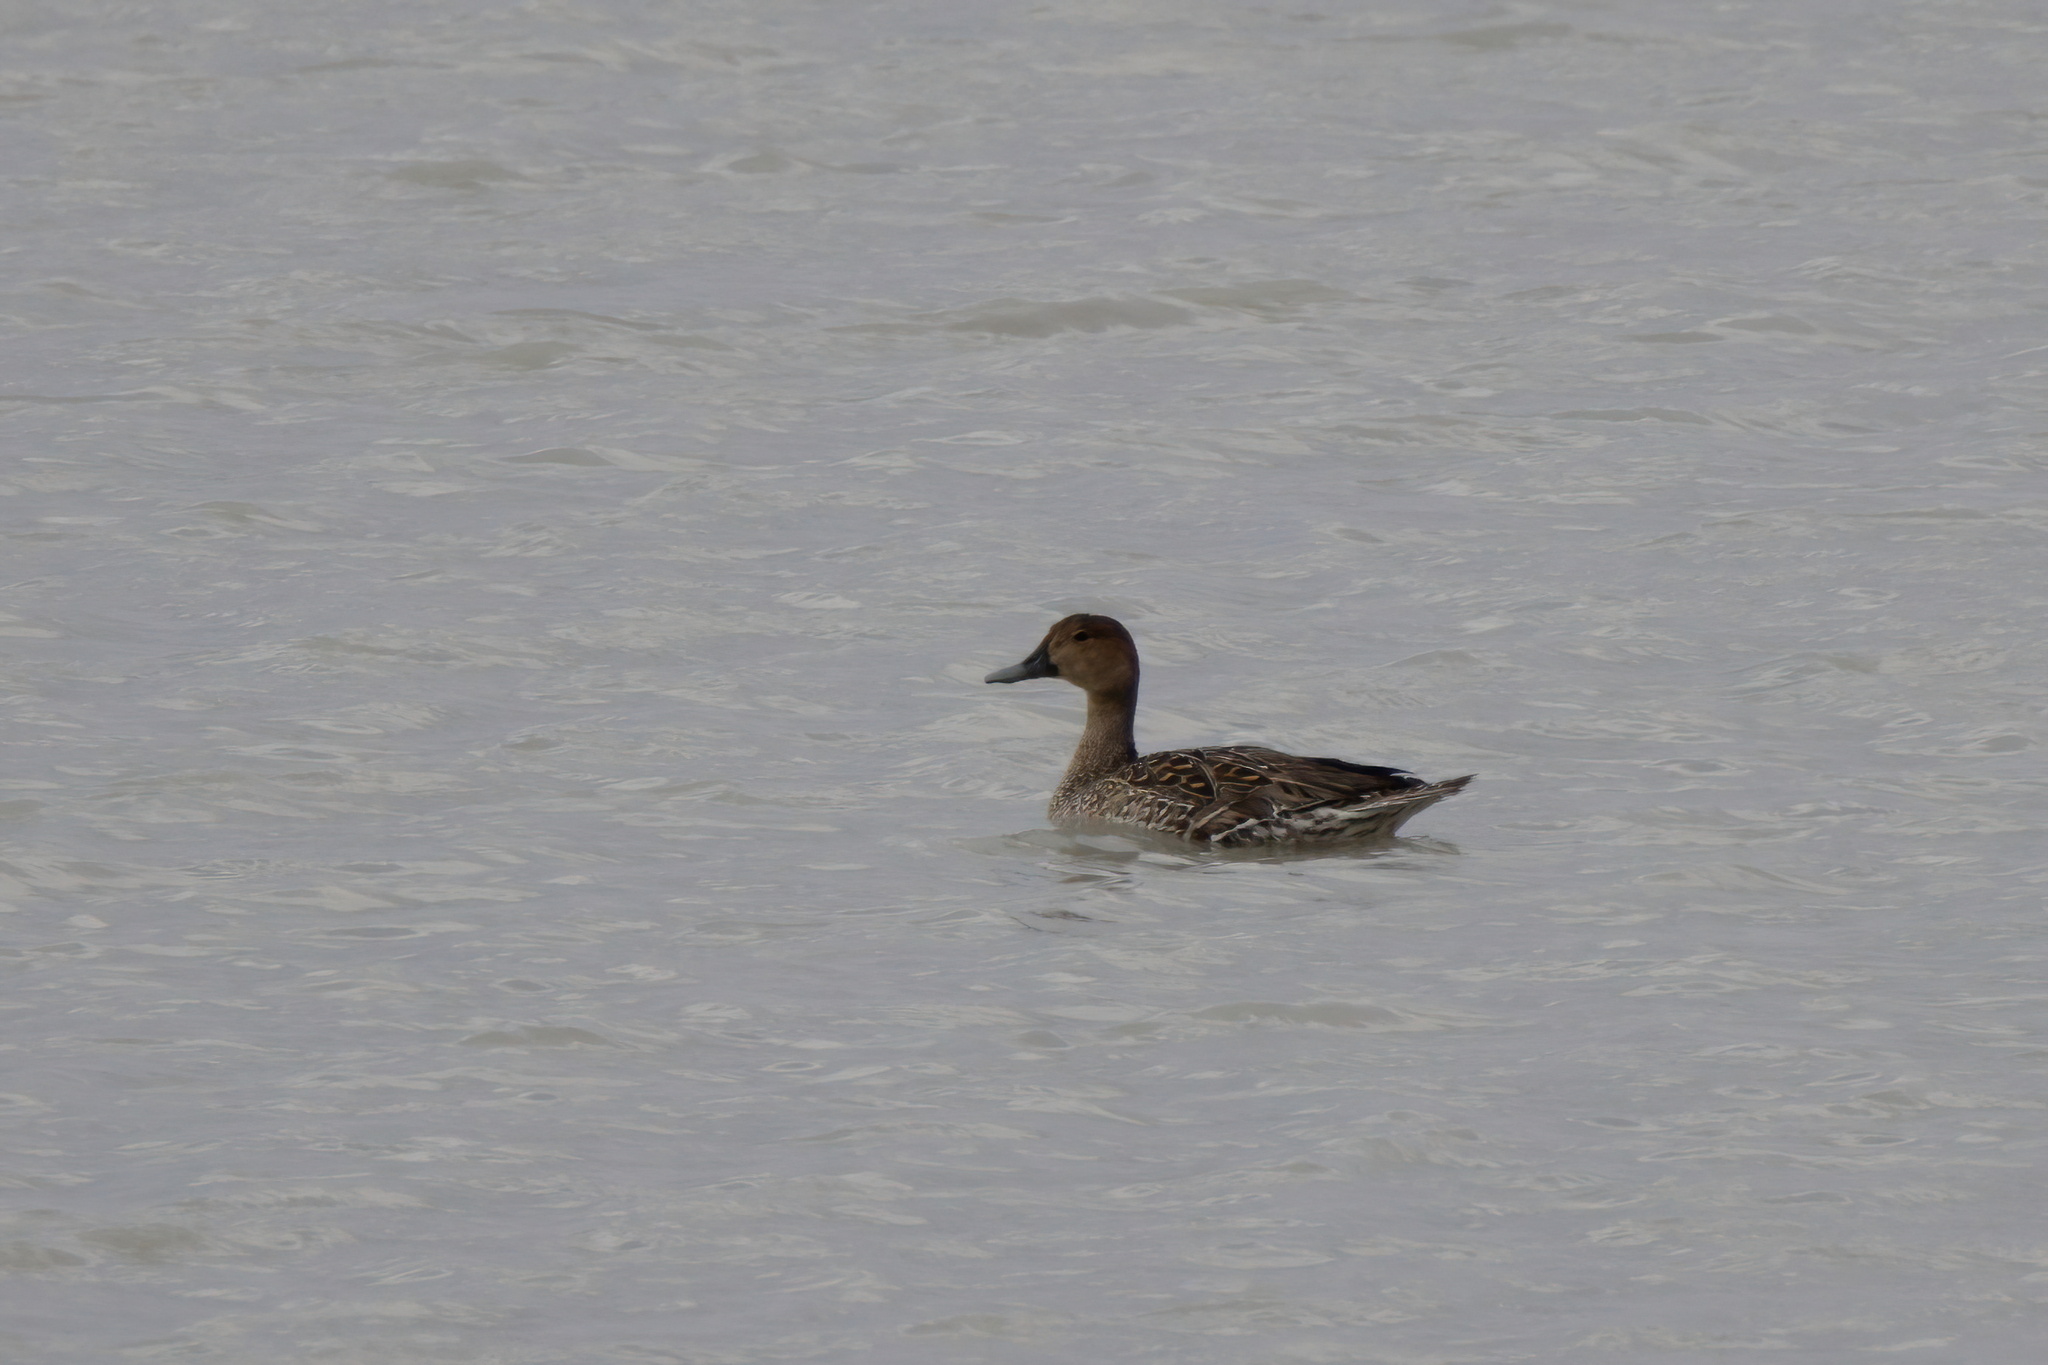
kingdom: Animalia
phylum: Chordata
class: Aves
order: Anseriformes
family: Anatidae
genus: Anas
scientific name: Anas acuta
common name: Northern pintail
